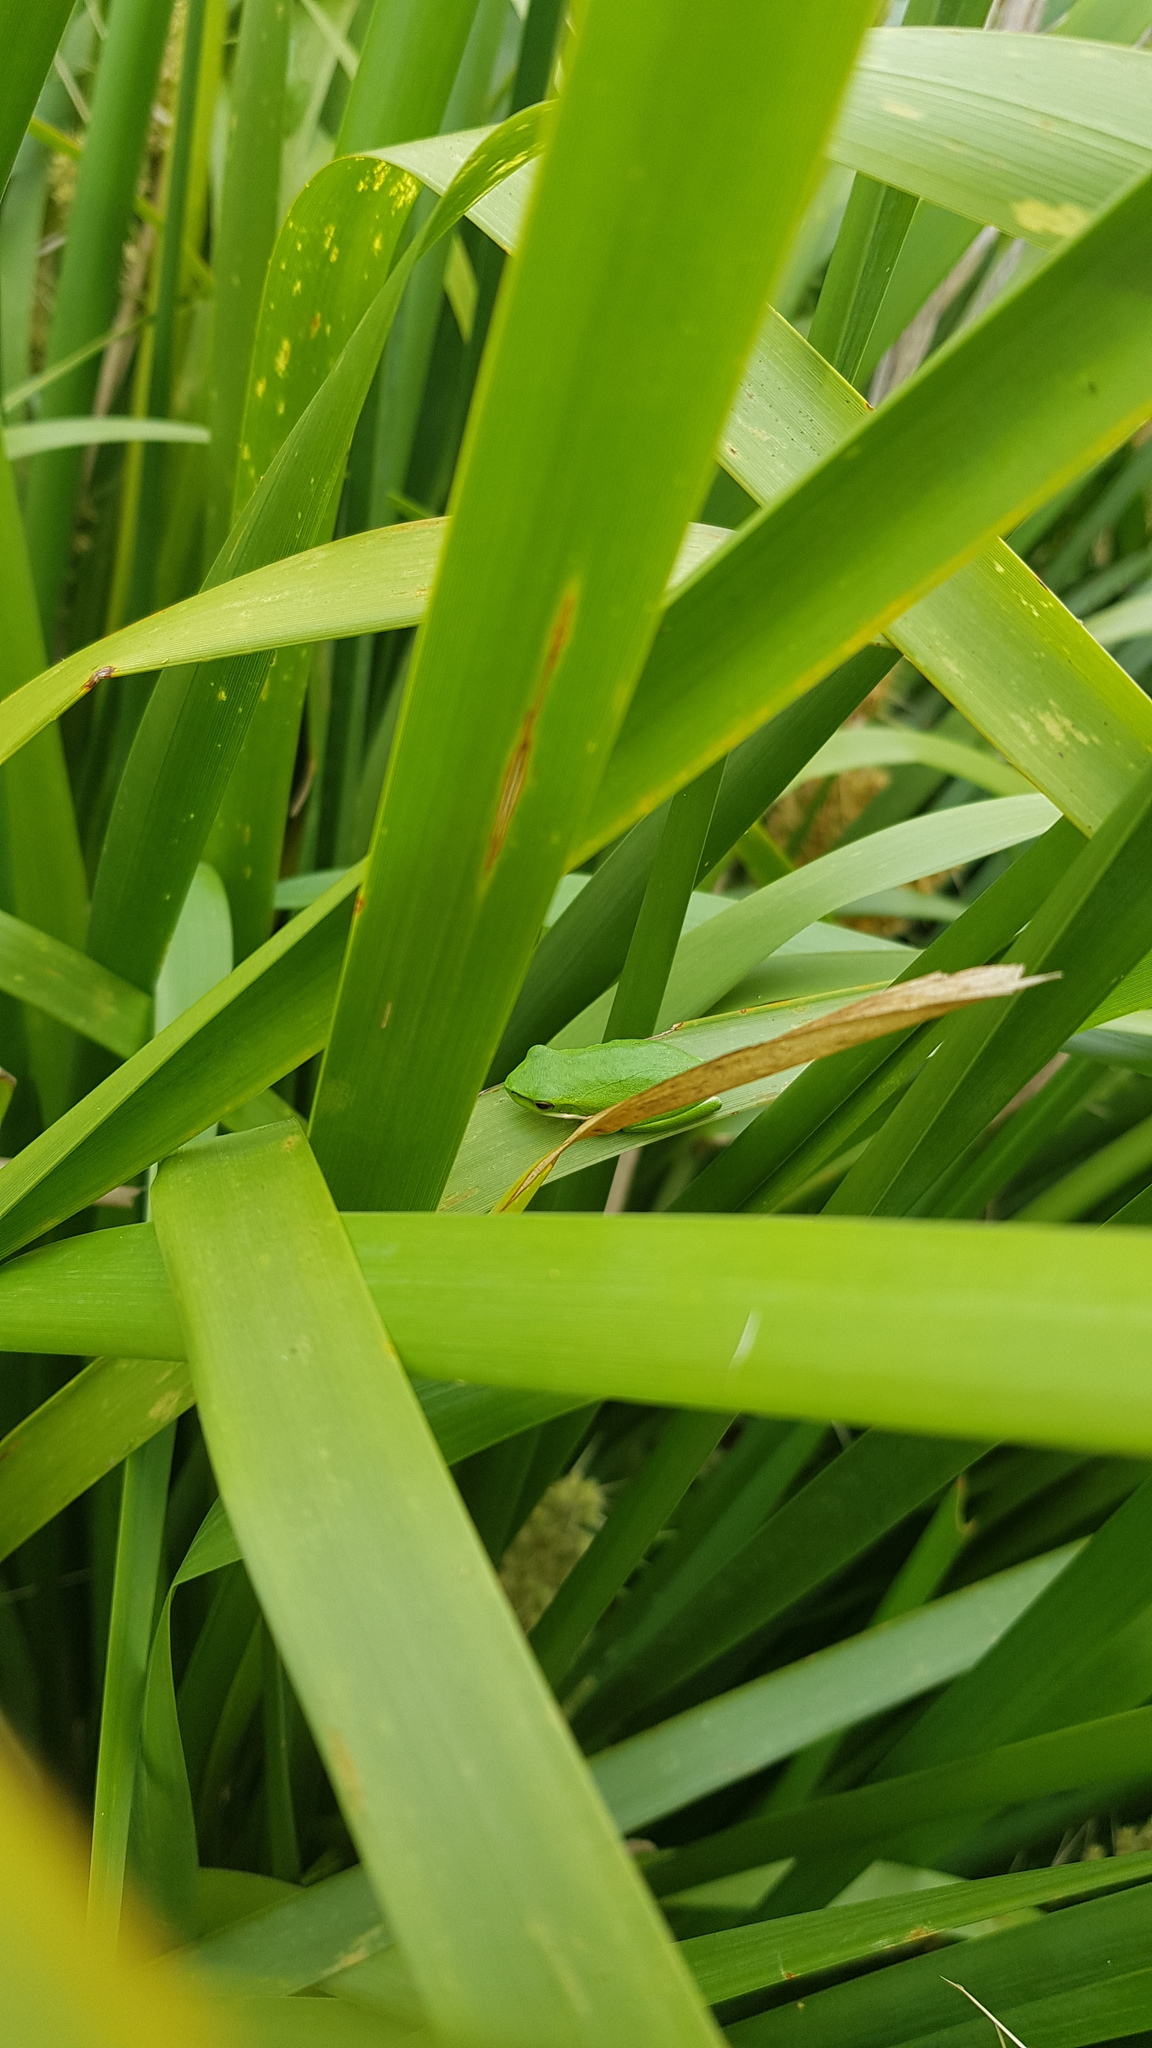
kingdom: Animalia
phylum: Chordata
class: Amphibia
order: Anura
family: Pelodryadidae
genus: Litoria
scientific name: Litoria fallax
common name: Eastern dwarf treefrog
